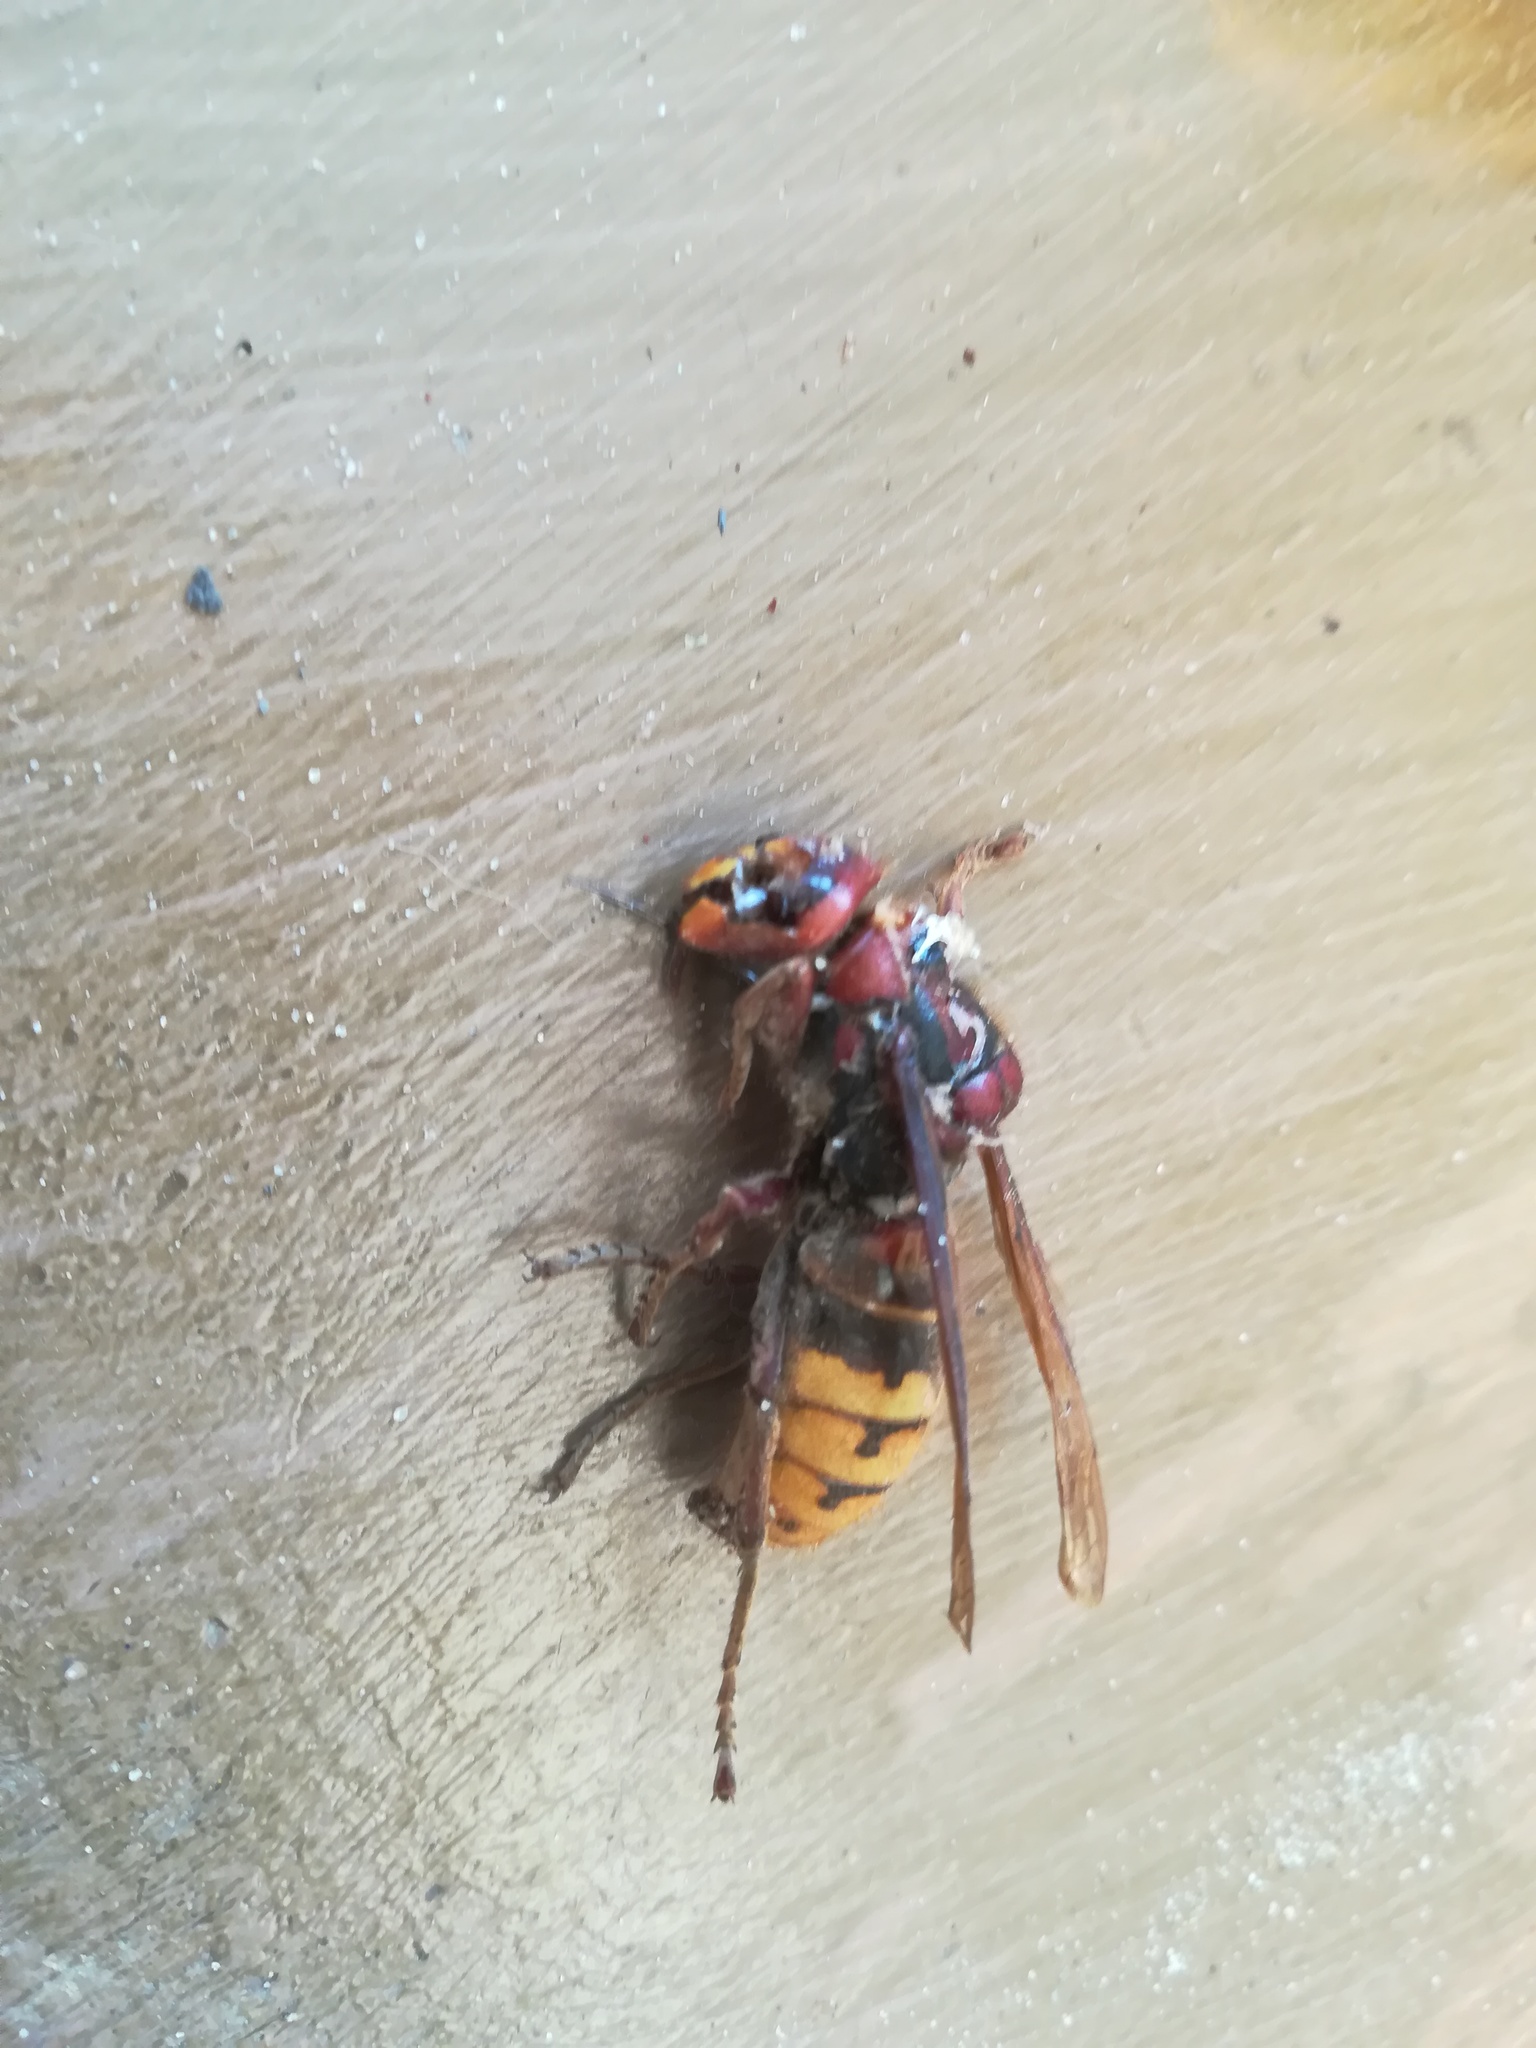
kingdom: Animalia
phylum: Arthropoda
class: Insecta
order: Hymenoptera
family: Vespidae
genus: Vespa
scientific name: Vespa crabro
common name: Hornet
